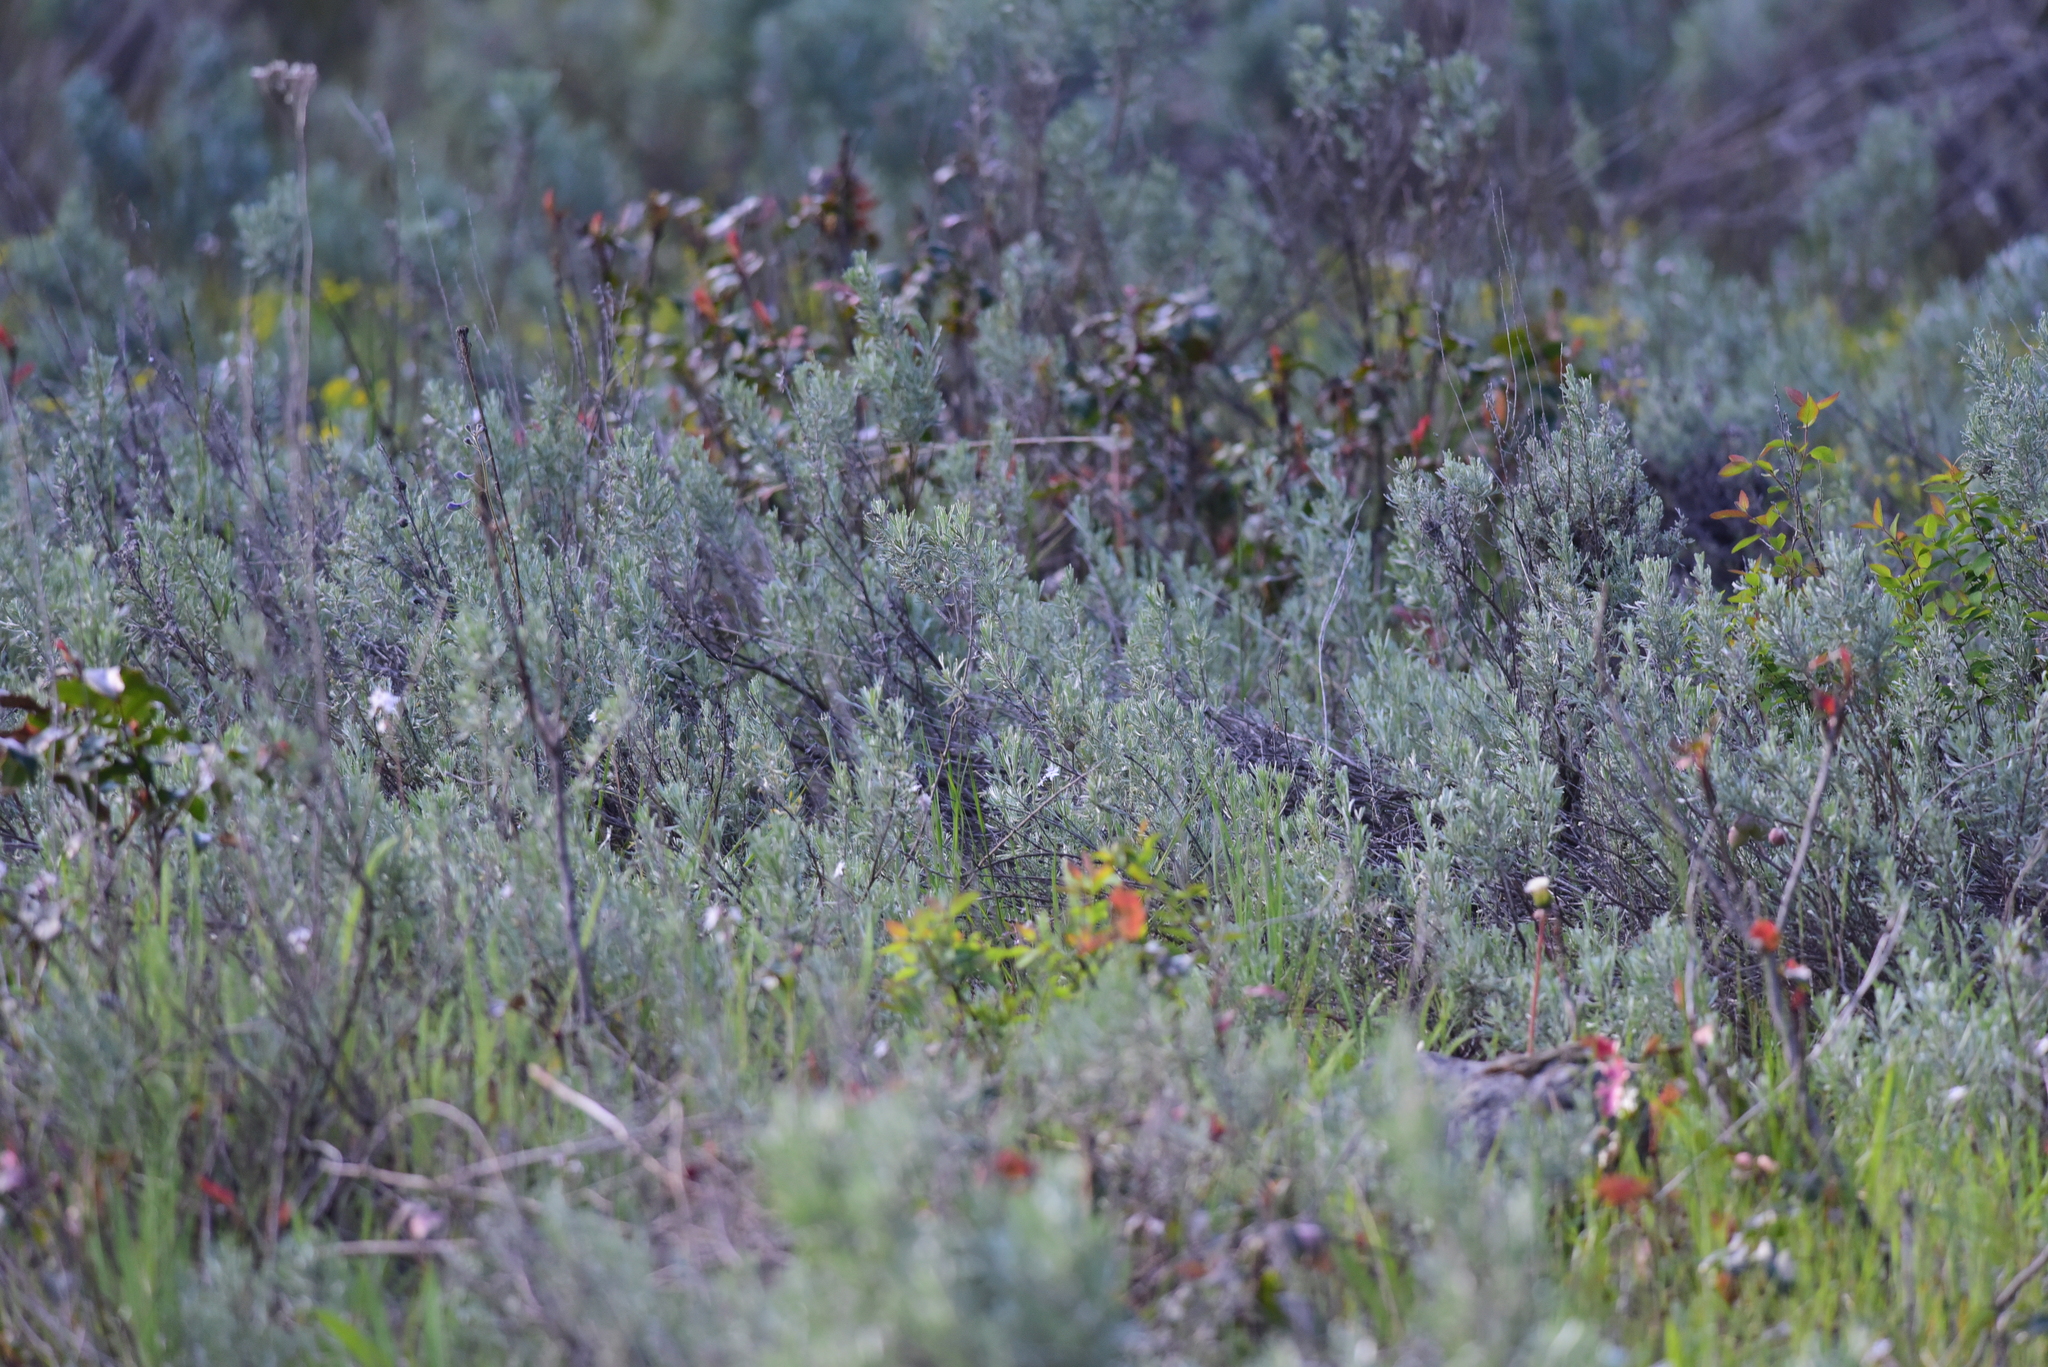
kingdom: Plantae
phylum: Tracheophyta
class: Magnoliopsida
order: Asterales
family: Asteraceae
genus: Artemisia
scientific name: Artemisia tridentata
